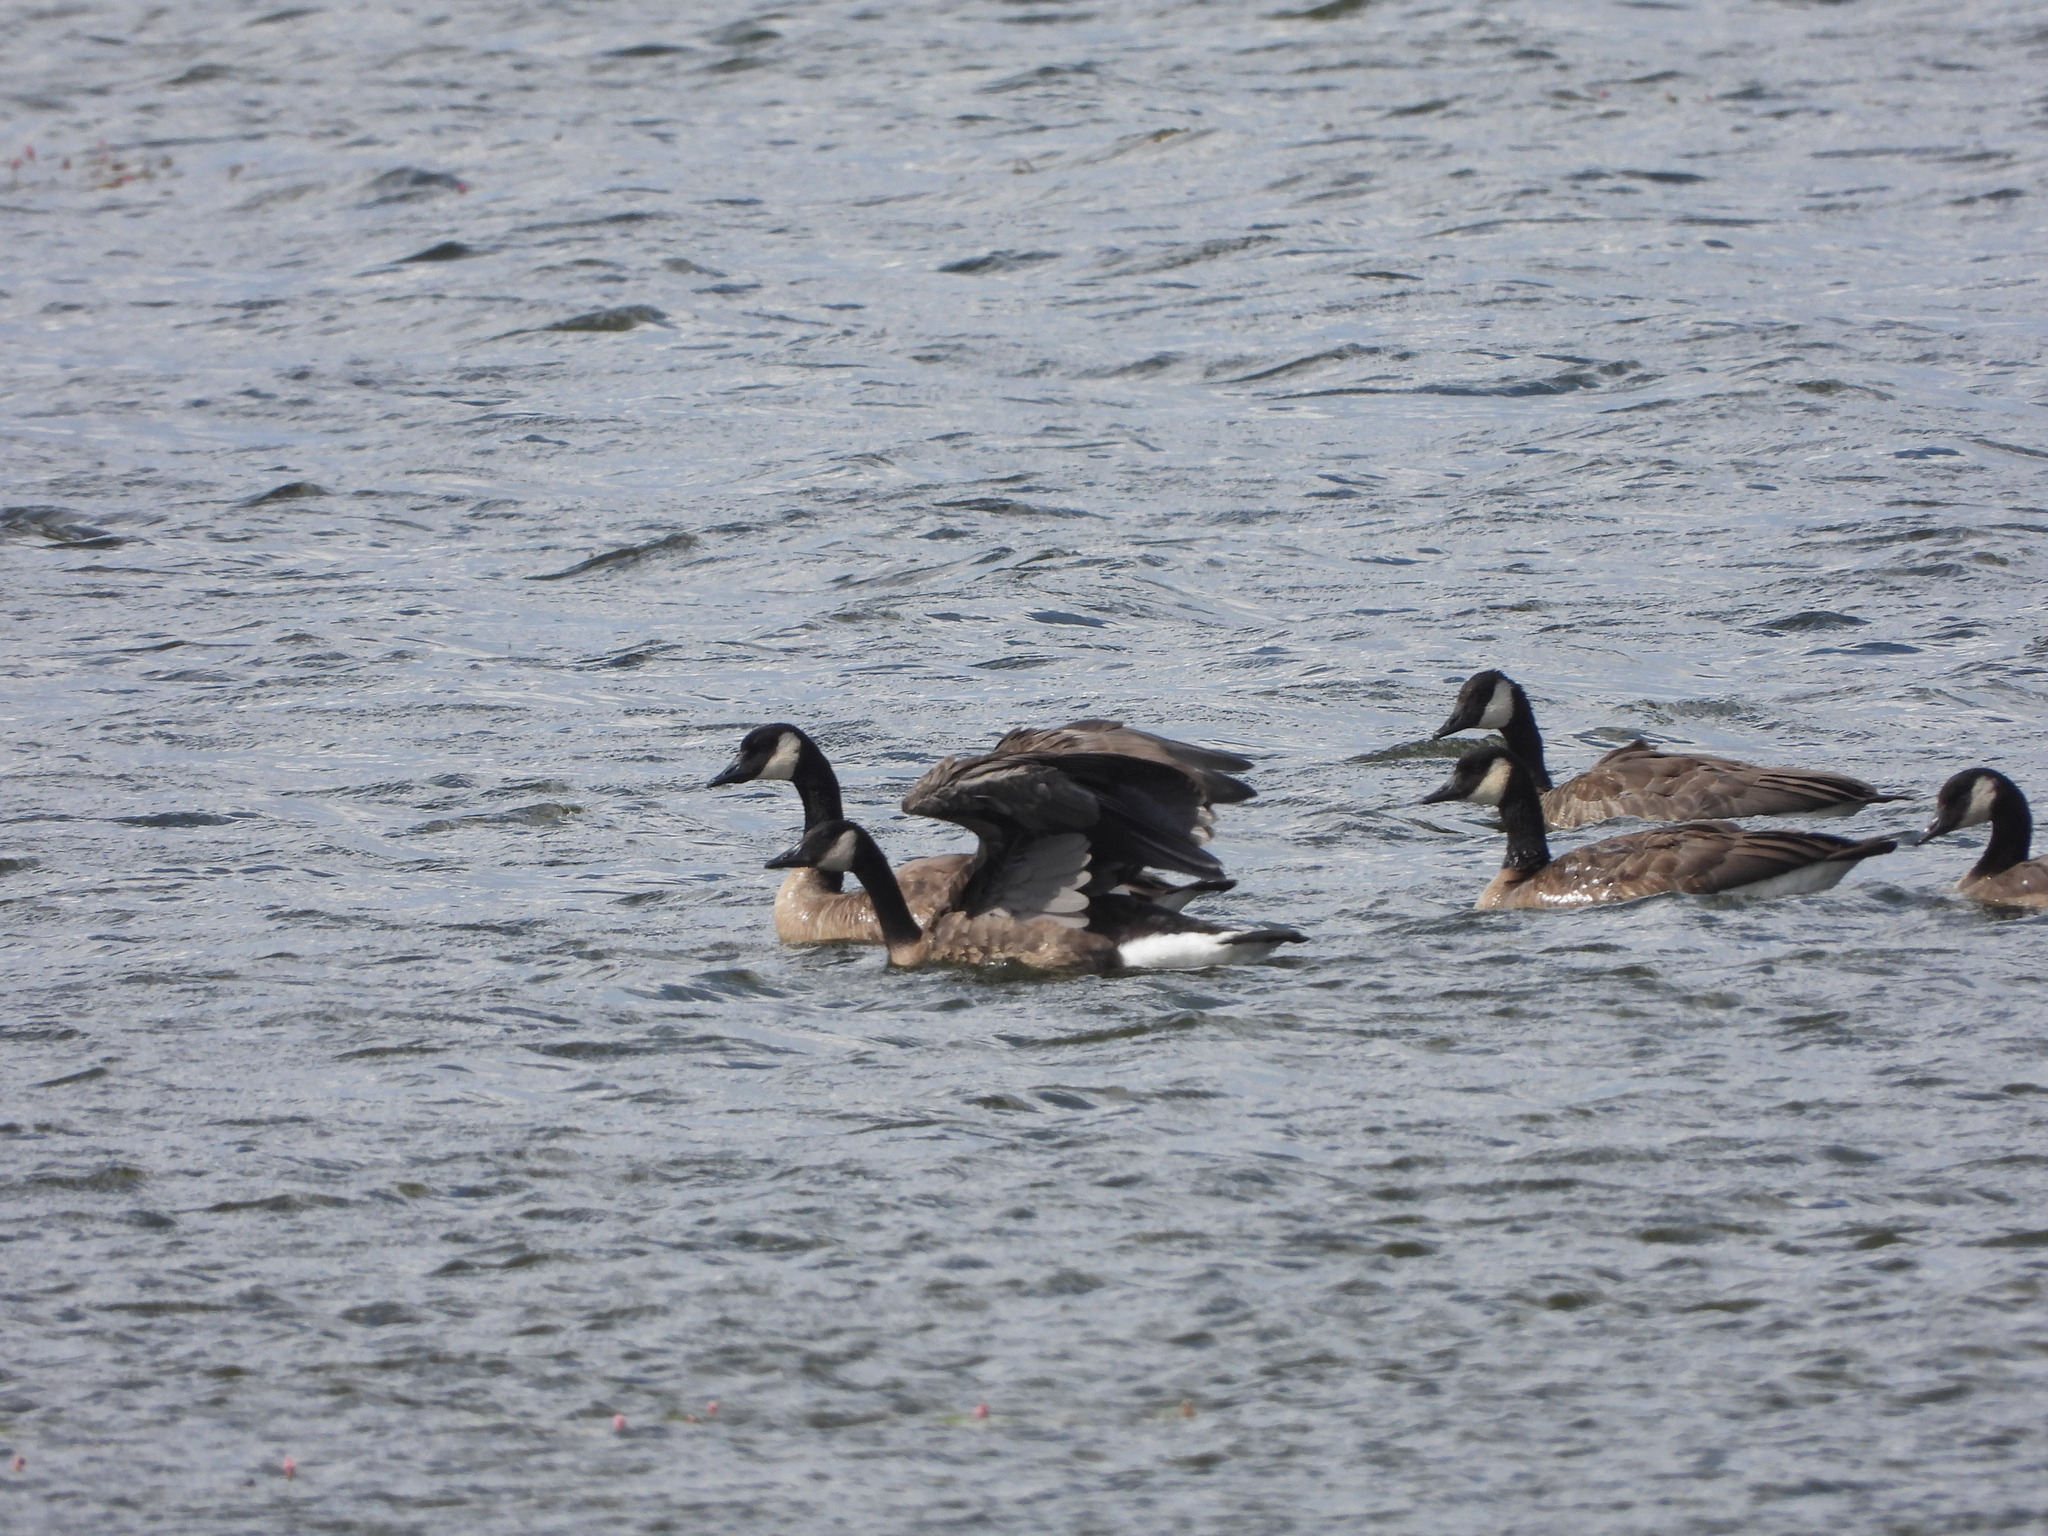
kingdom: Animalia
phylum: Chordata
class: Aves
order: Anseriformes
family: Anatidae
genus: Branta
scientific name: Branta canadensis
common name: Canada goose
